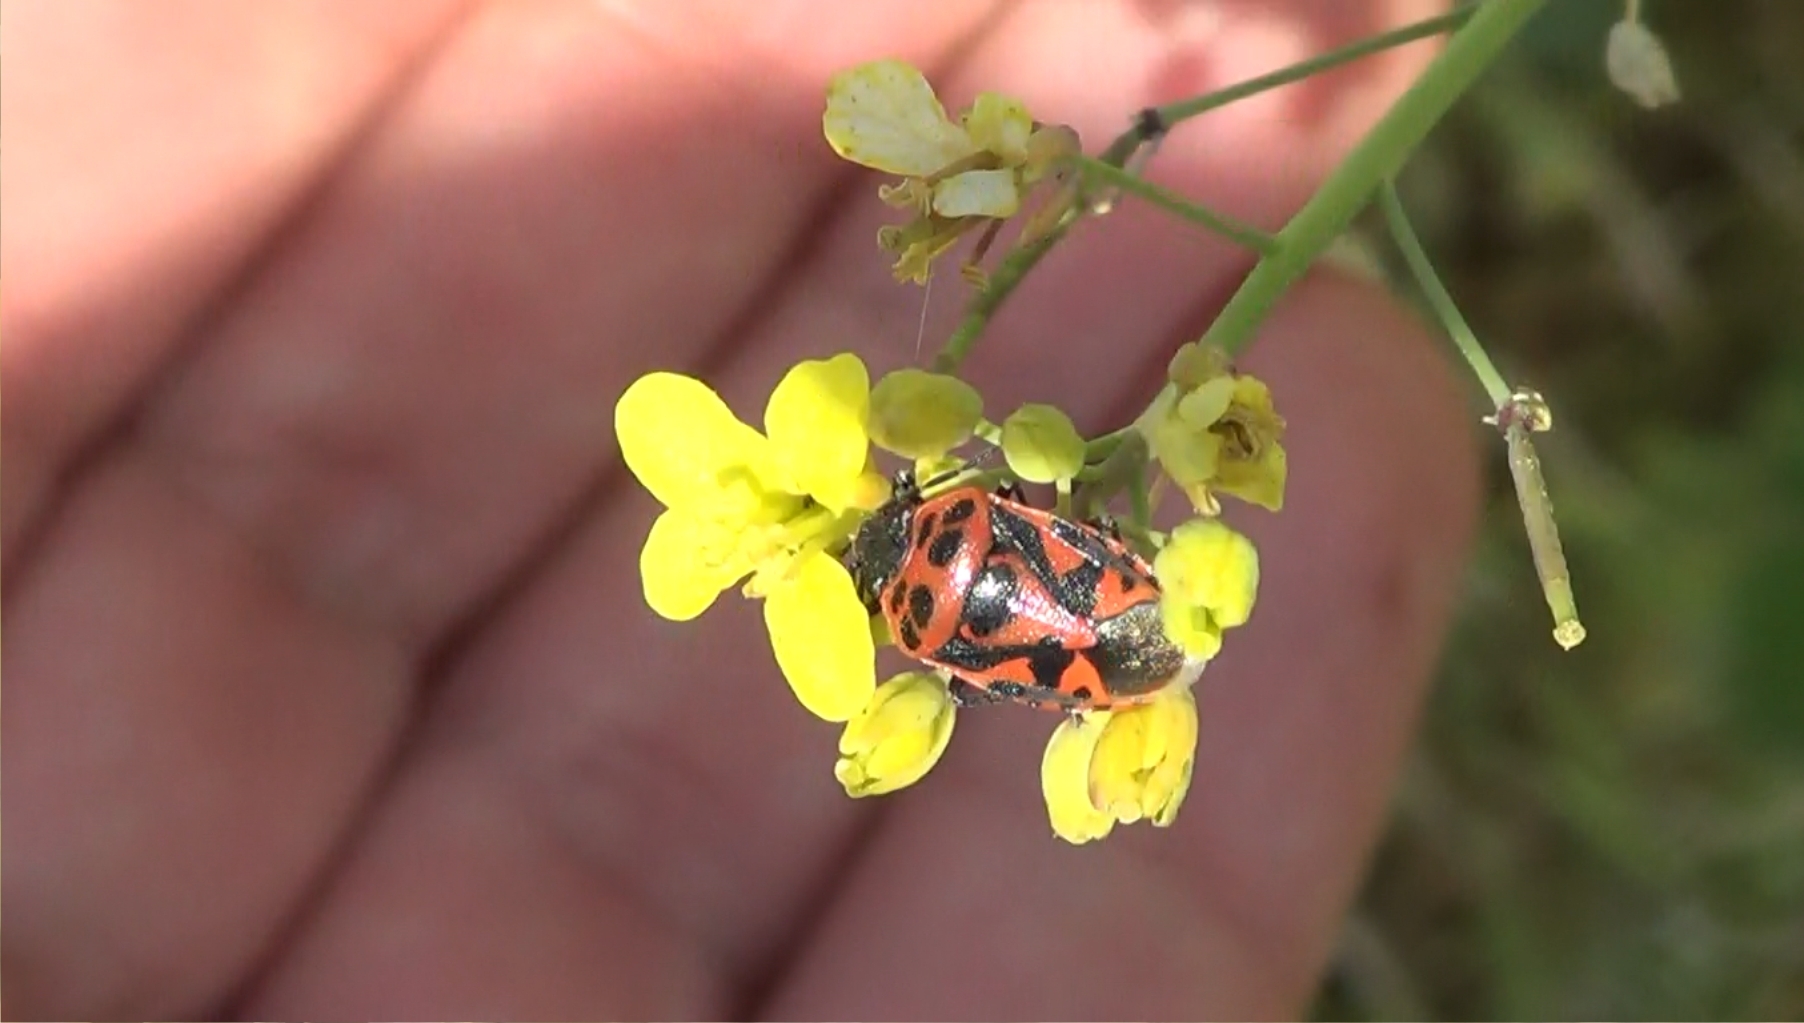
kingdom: Animalia
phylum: Arthropoda
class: Insecta
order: Hemiptera
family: Pentatomidae
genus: Eurydema
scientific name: Eurydema ornata
